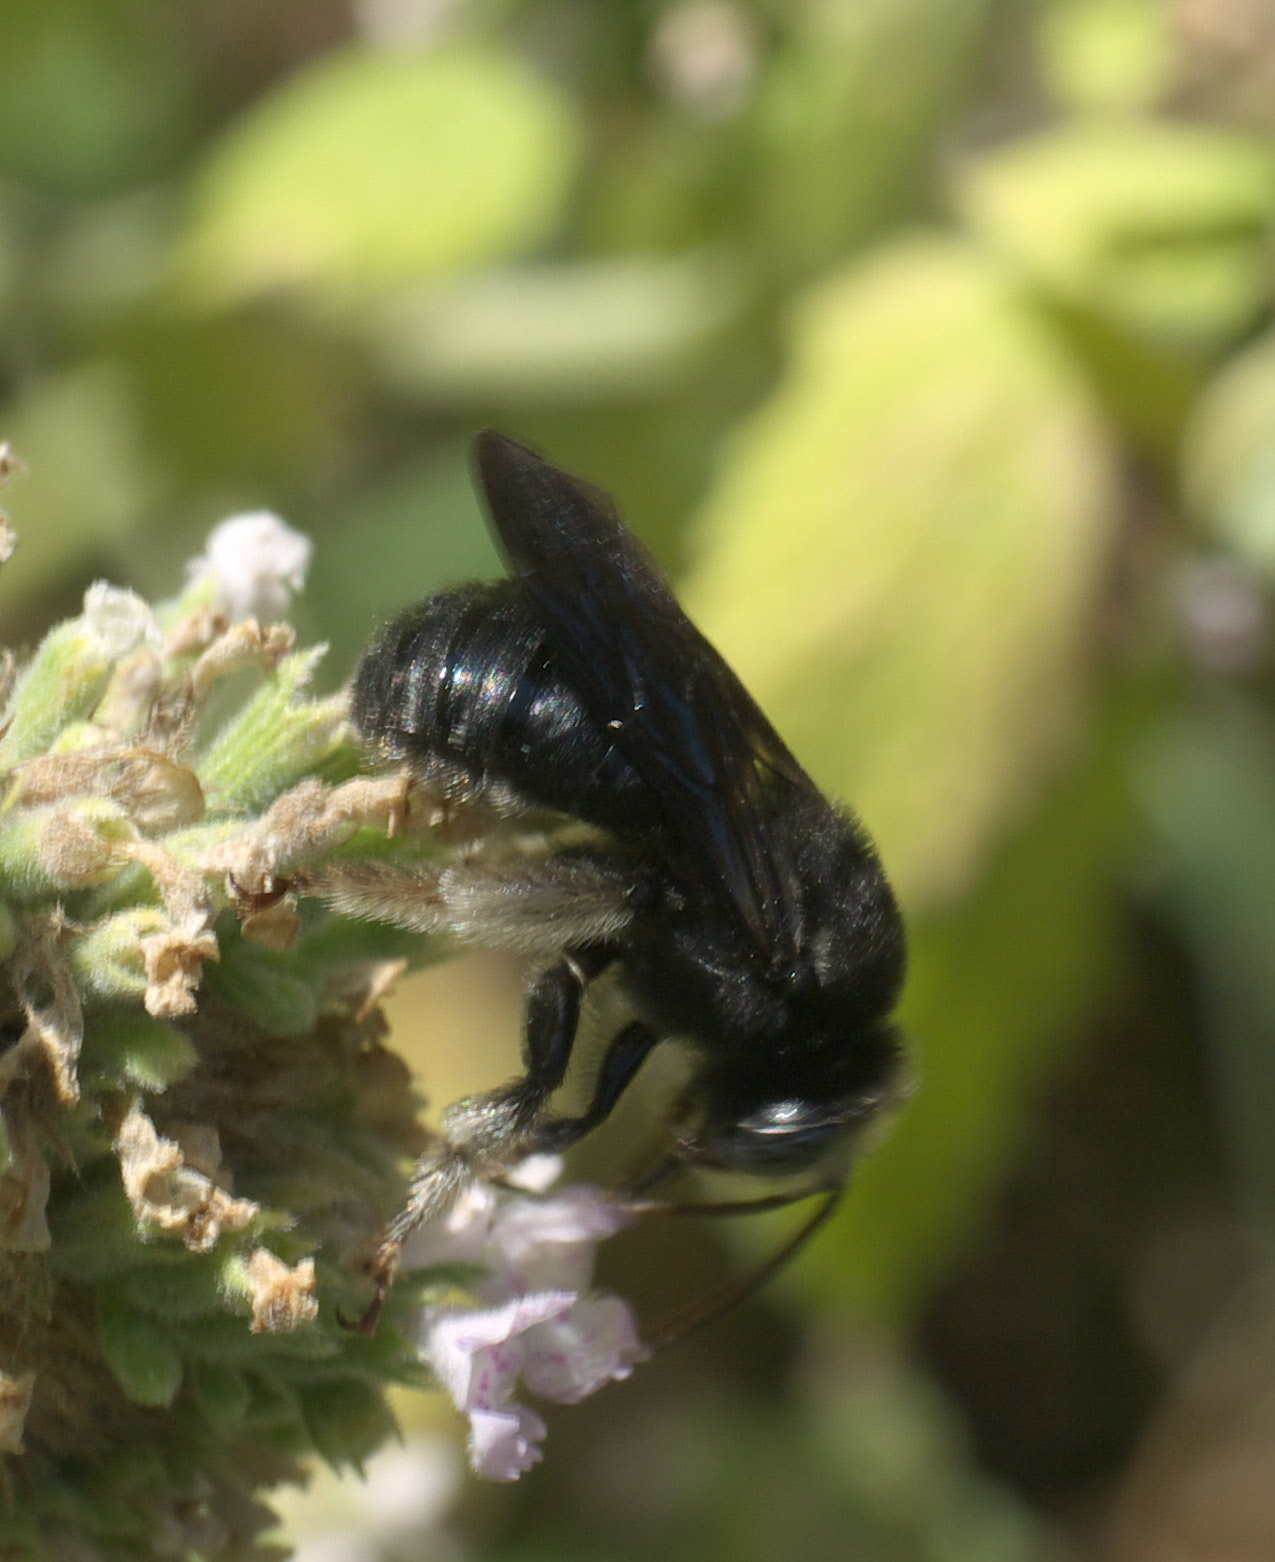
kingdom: Animalia
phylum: Arthropoda
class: Insecta
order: Hymenoptera
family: Apidae
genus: Melissodes
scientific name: Melissodes bimaculatus
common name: Two-spotted long-horned bee
